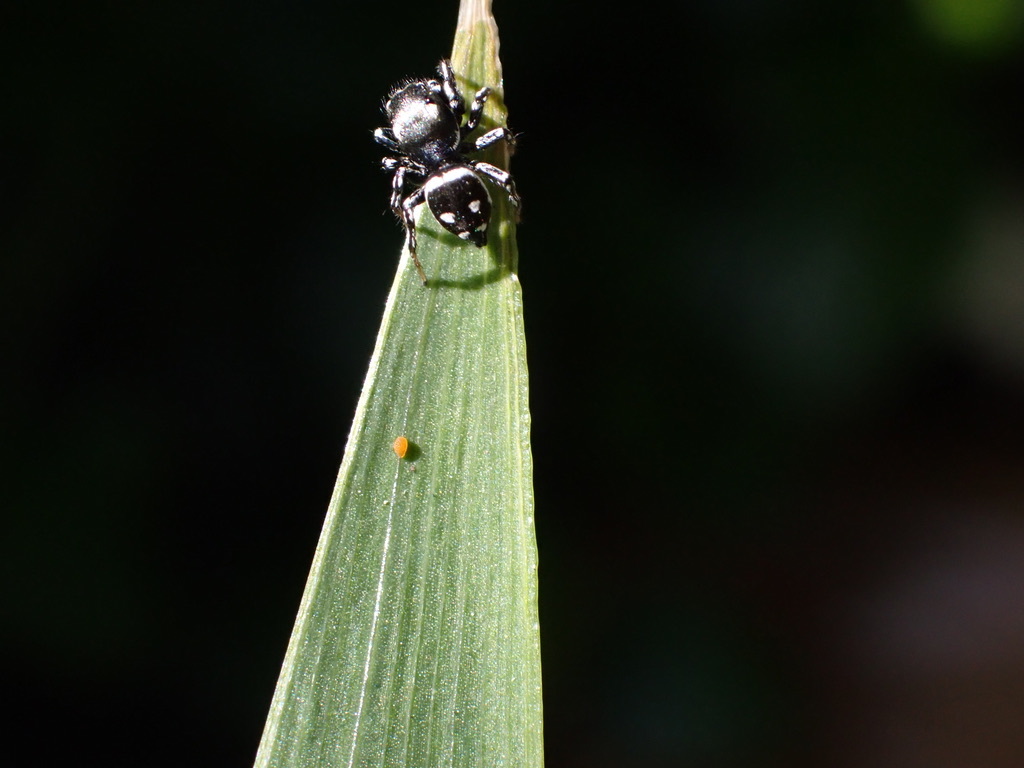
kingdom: Animalia
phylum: Arthropoda
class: Arachnida
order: Araneae
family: Salticidae
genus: Heliophanus
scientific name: Heliophanus apiatus
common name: Sun jumping spider
